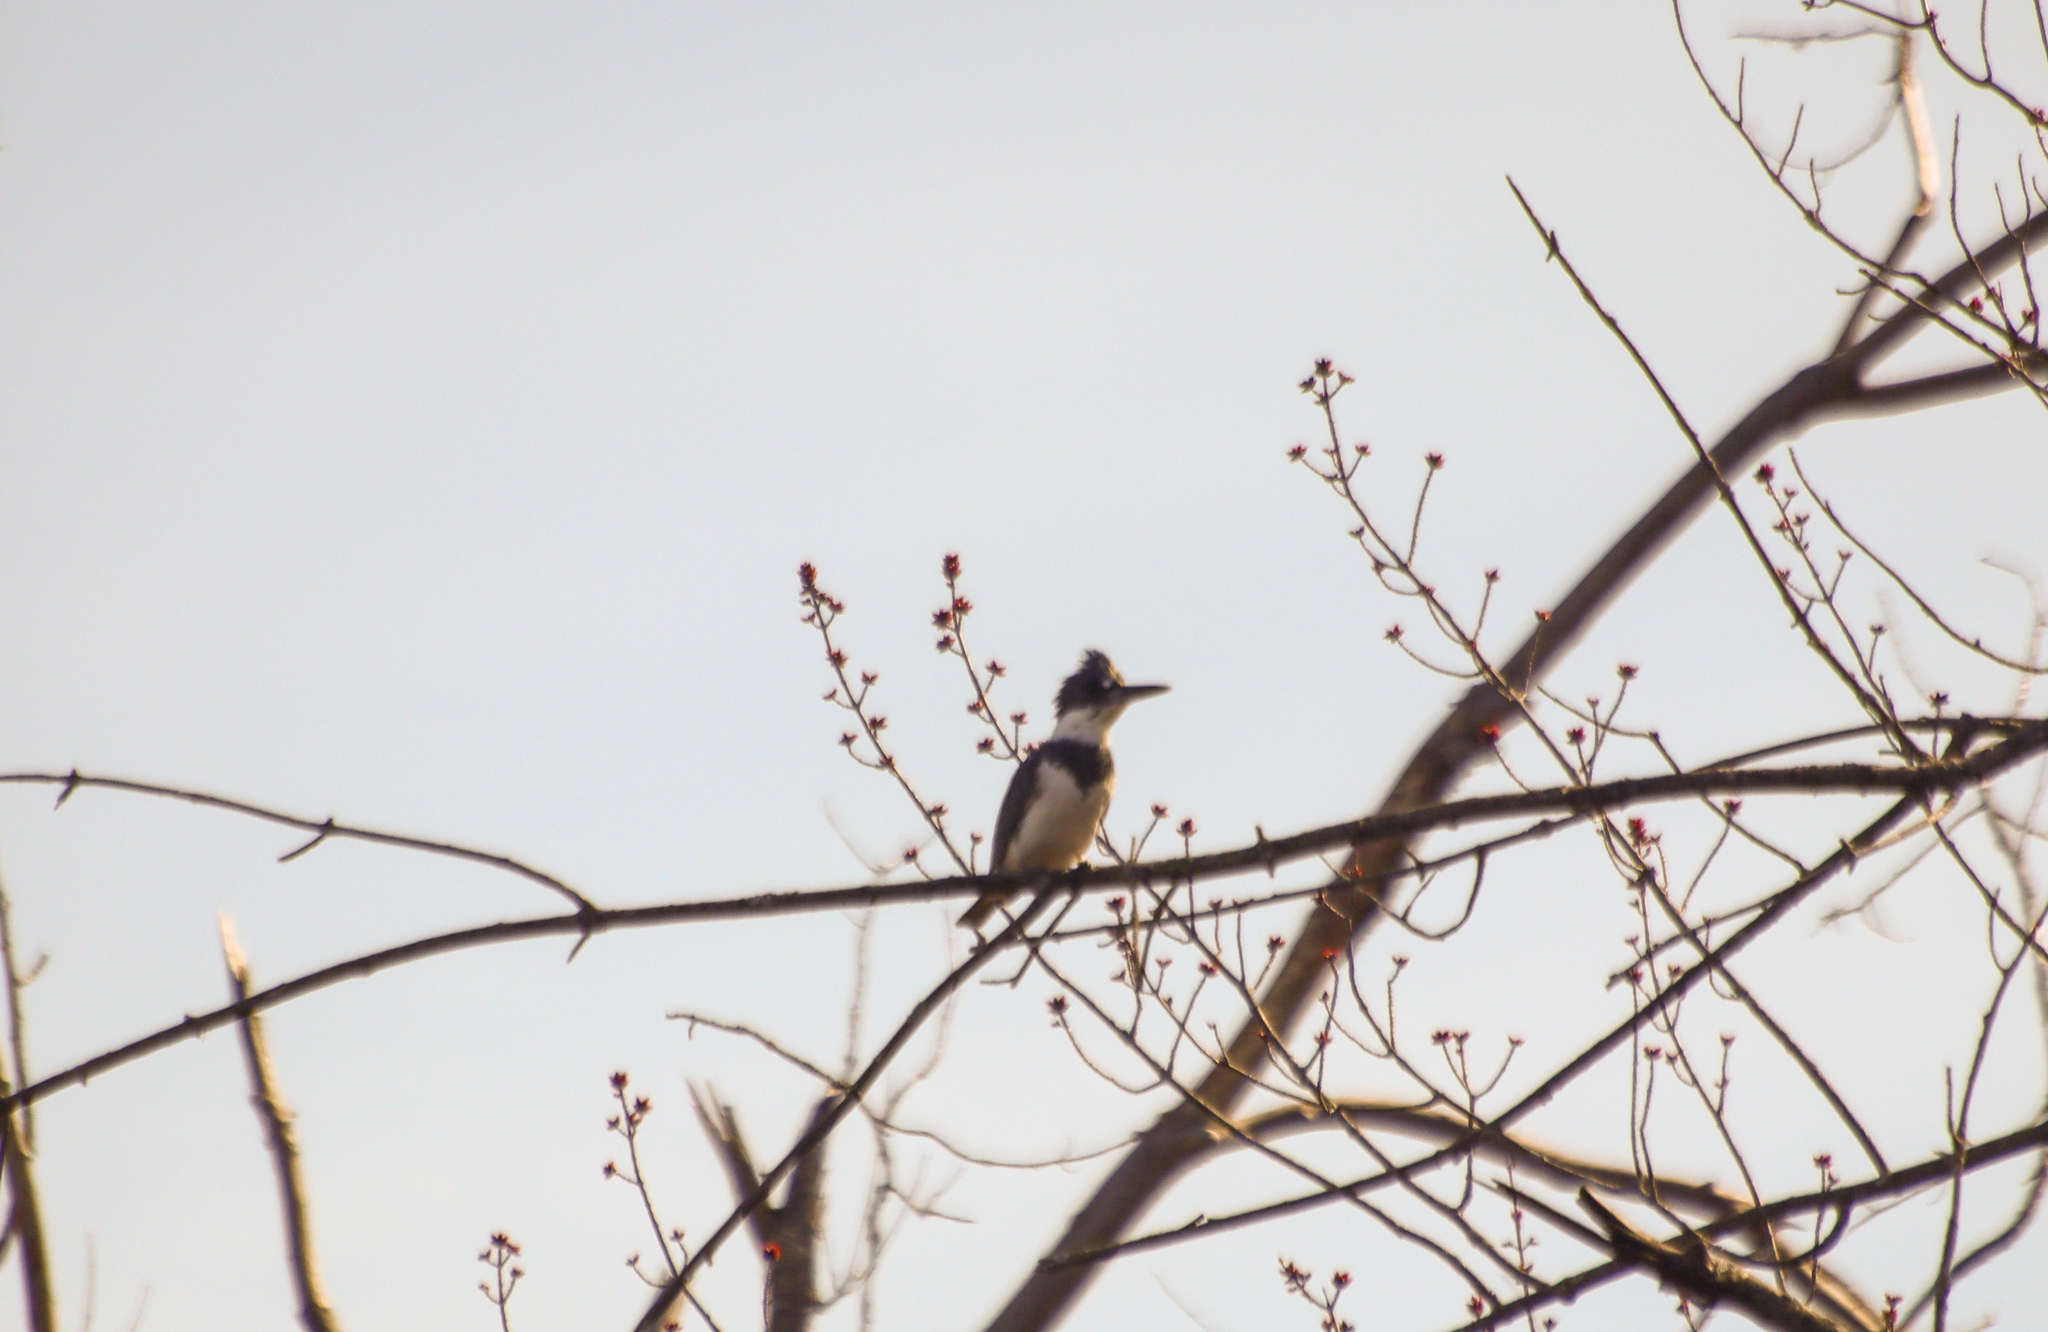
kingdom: Animalia
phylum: Chordata
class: Aves
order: Coraciiformes
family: Alcedinidae
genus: Megaceryle
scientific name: Megaceryle alcyon
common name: Belted kingfisher
